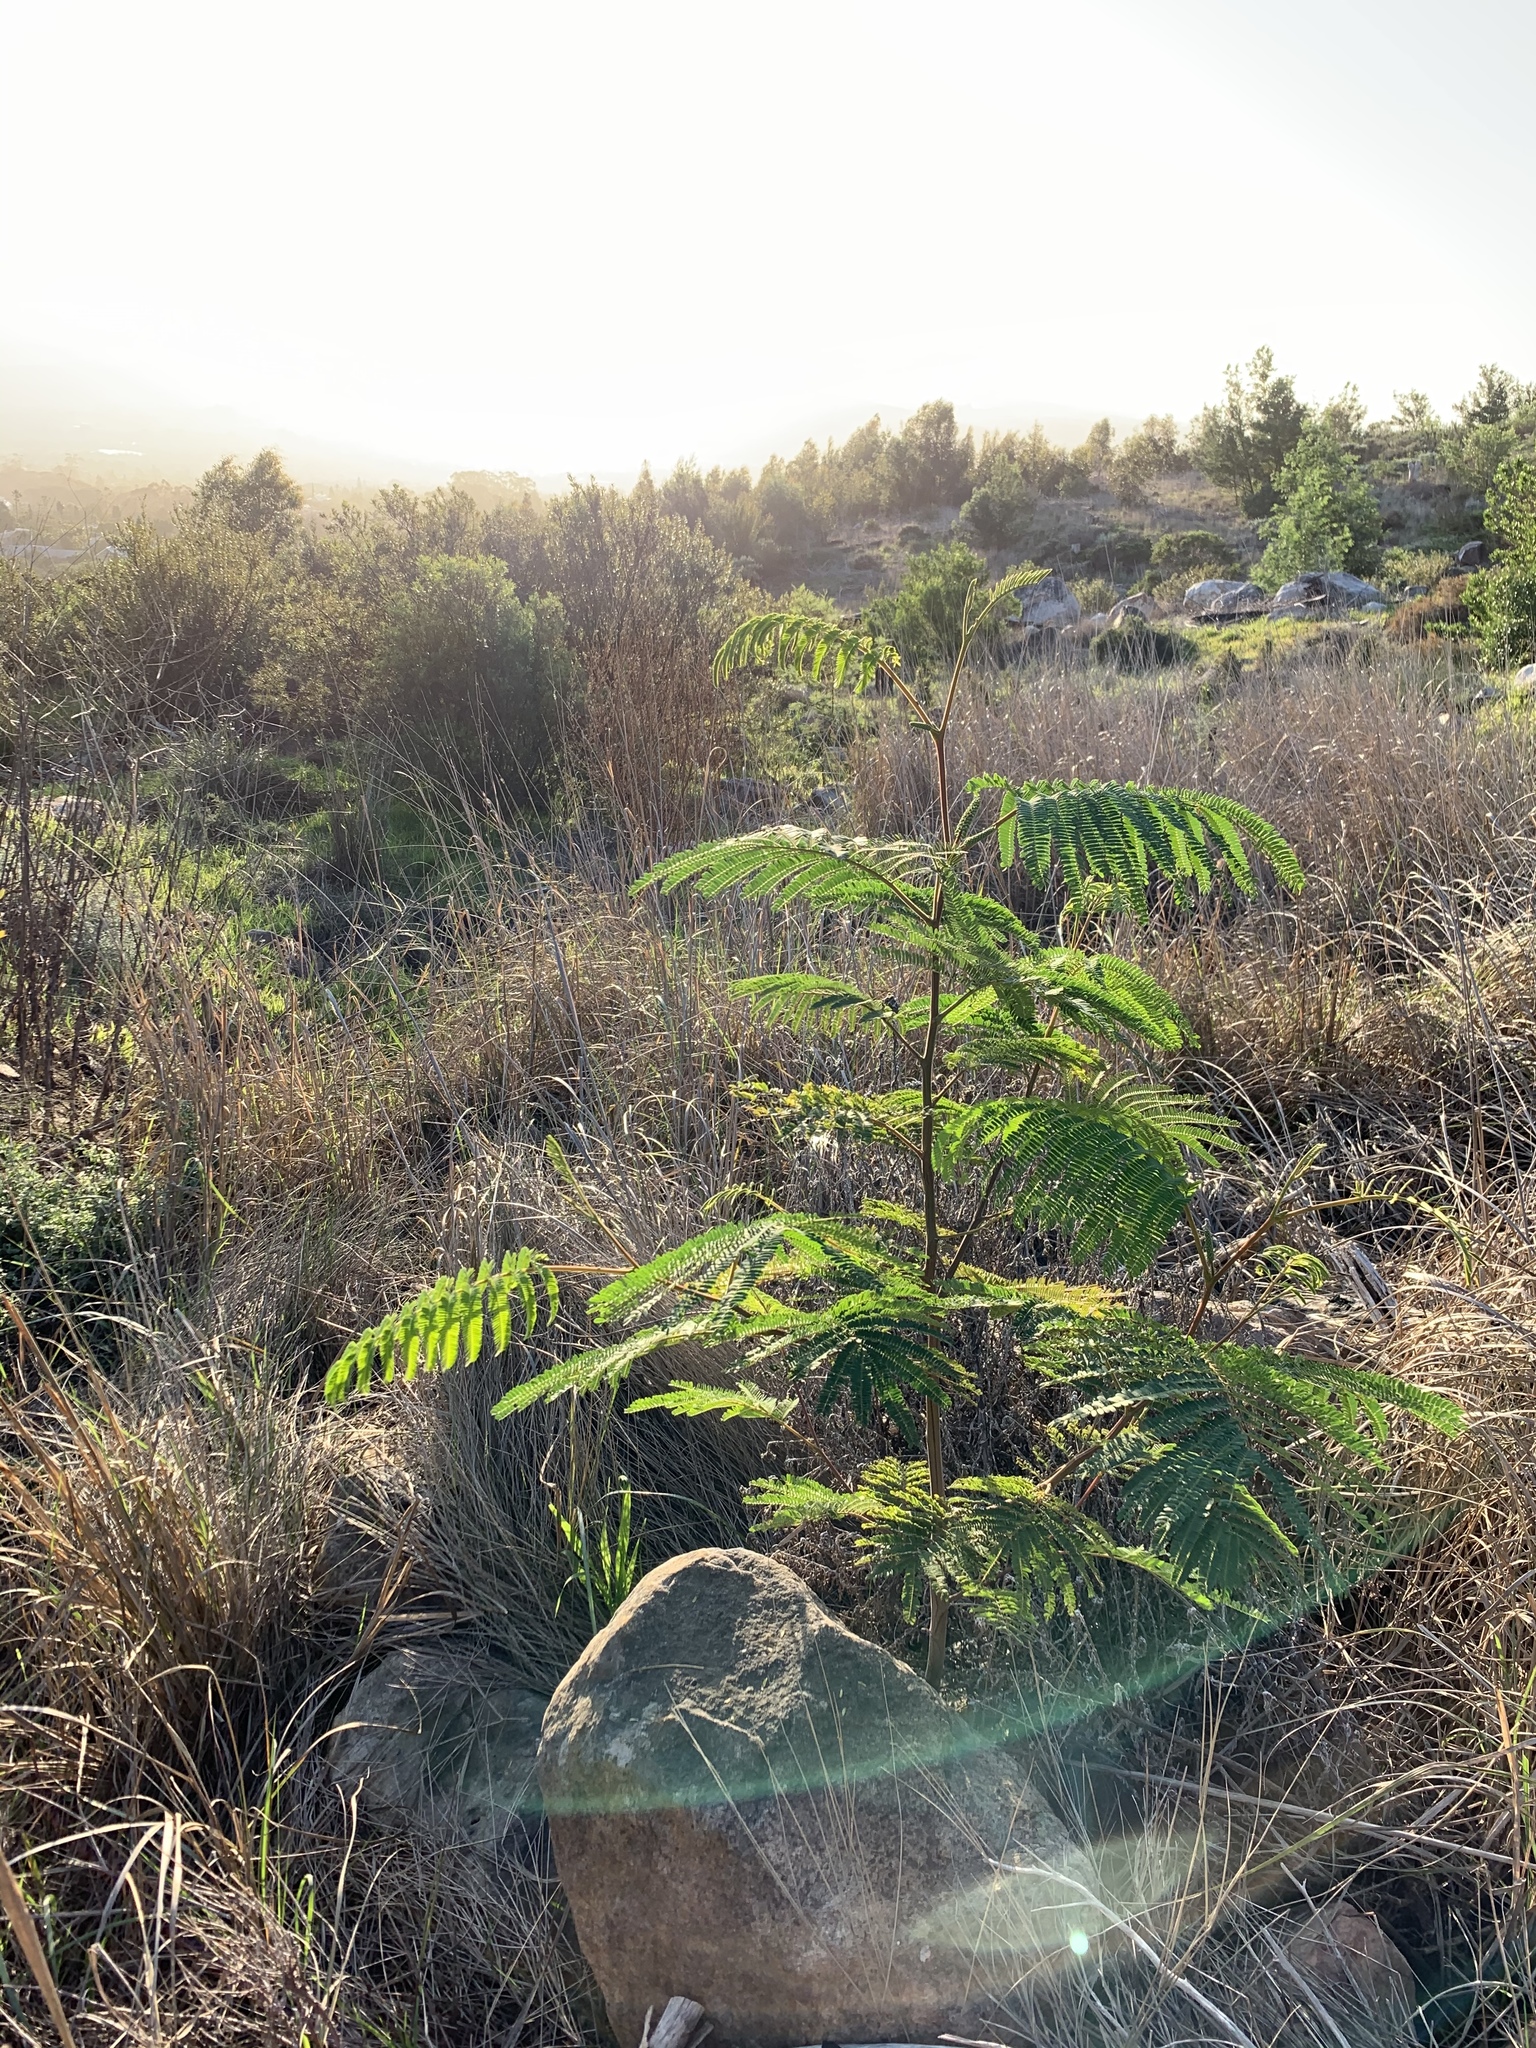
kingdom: Plantae
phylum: Tracheophyta
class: Magnoliopsida
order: Fabales
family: Fabaceae
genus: Paraserianthes
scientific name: Paraserianthes lophantha
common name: Plume albizia
